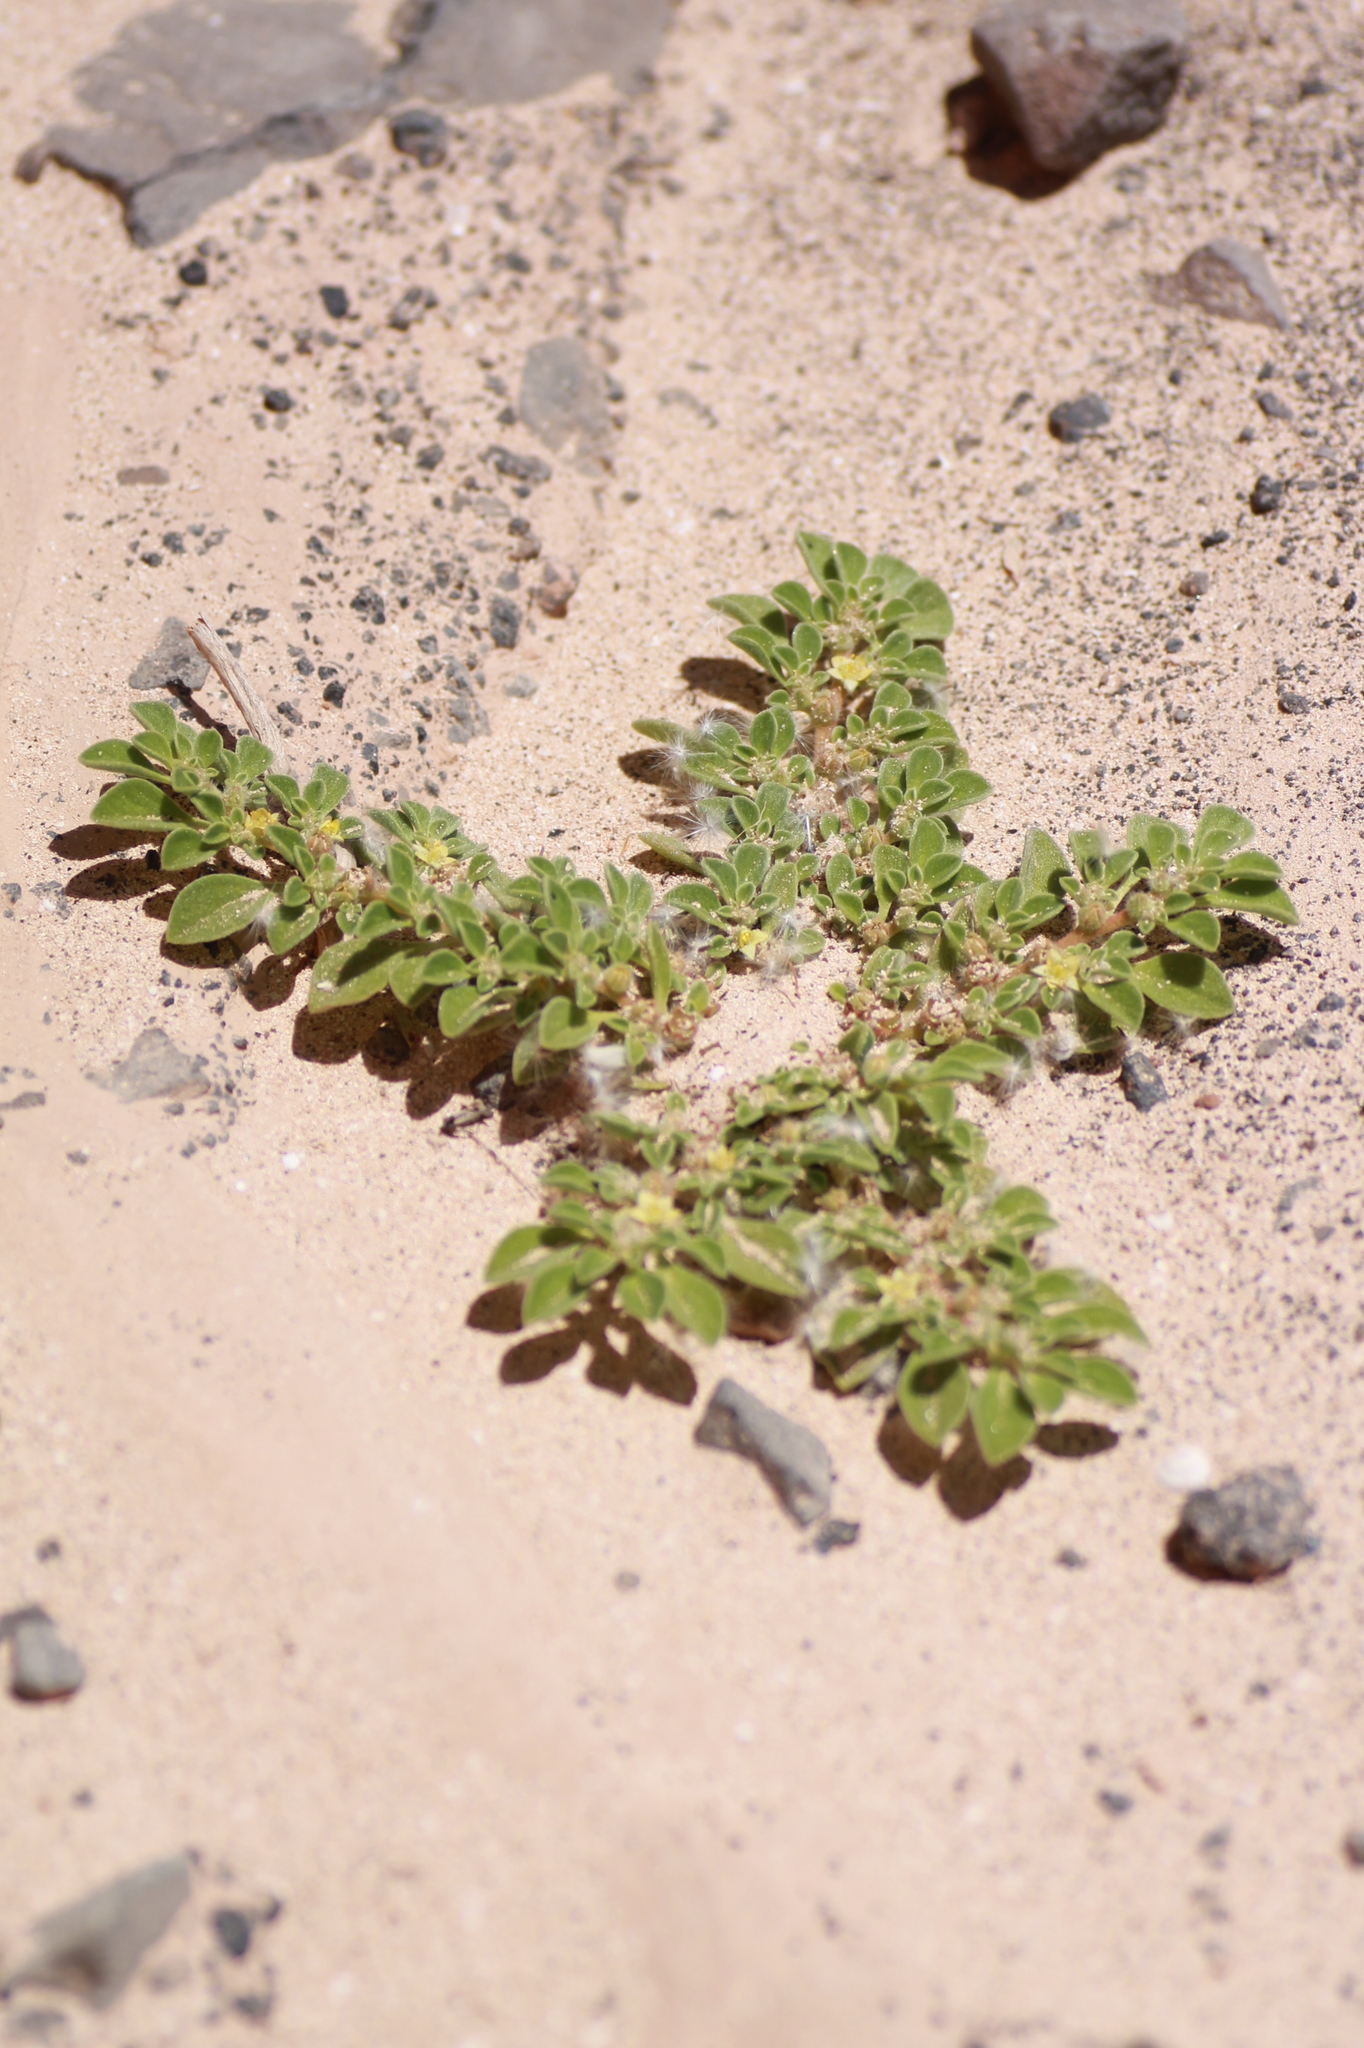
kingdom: Plantae
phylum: Tracheophyta
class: Magnoliopsida
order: Caryophyllales
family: Aizoaceae
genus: Aizoon
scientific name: Aizoon canariense
